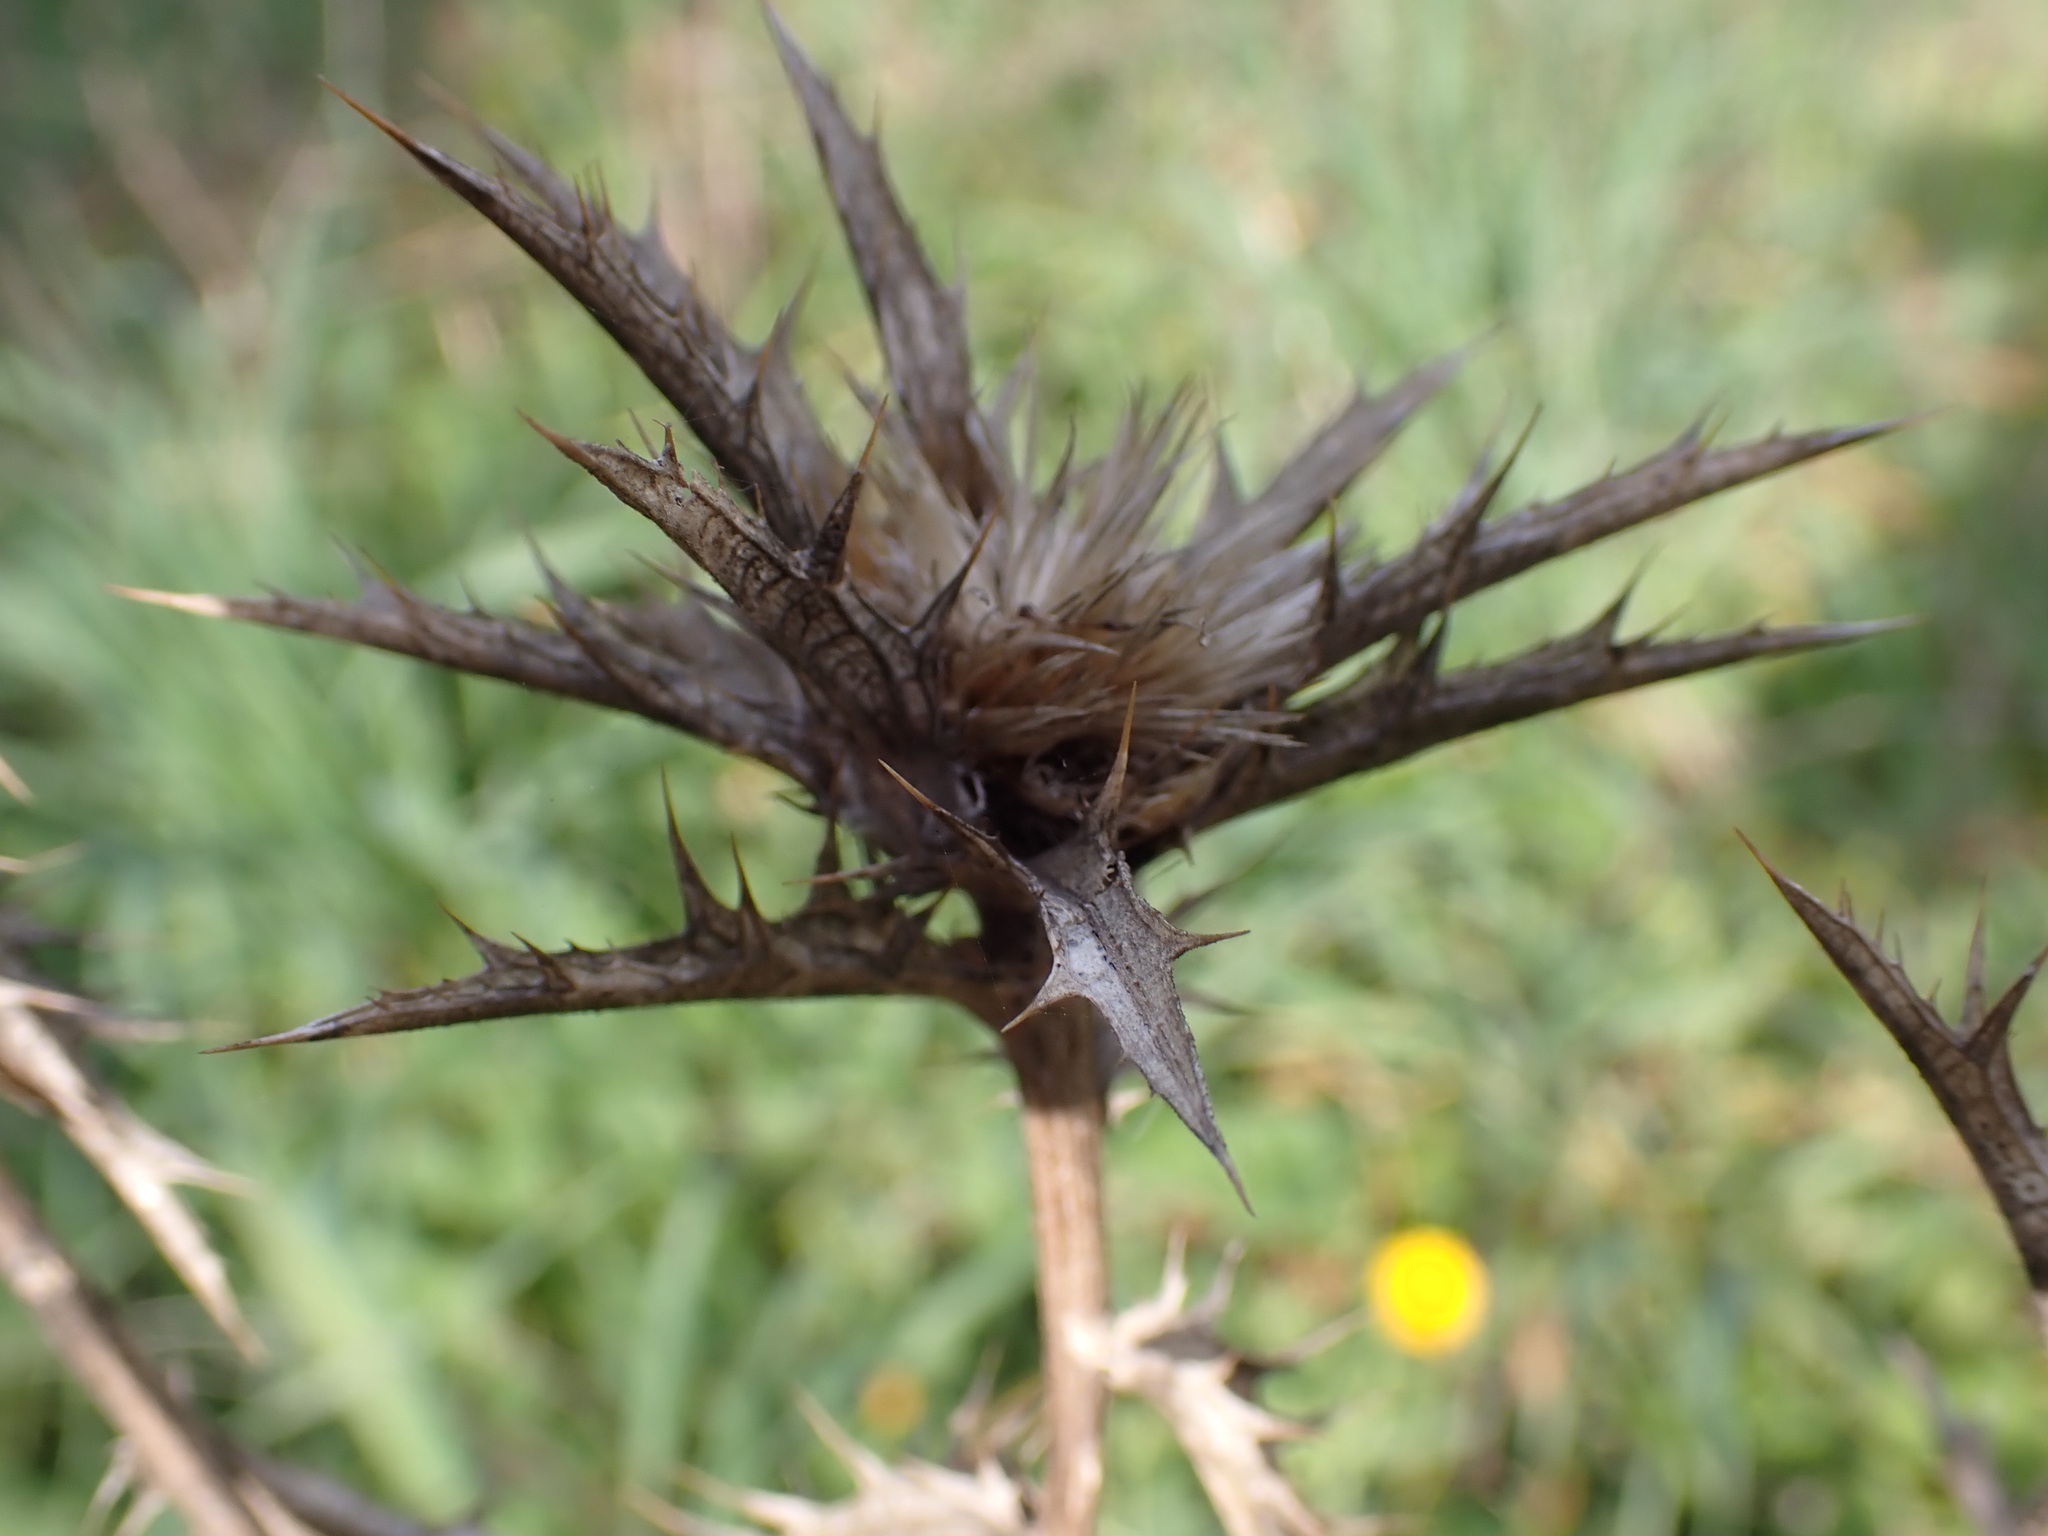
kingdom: Plantae
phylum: Tracheophyta
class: Magnoliopsida
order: Asterales
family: Asteraceae
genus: Carthamus
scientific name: Carthamus lanatus
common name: Downy safflower
